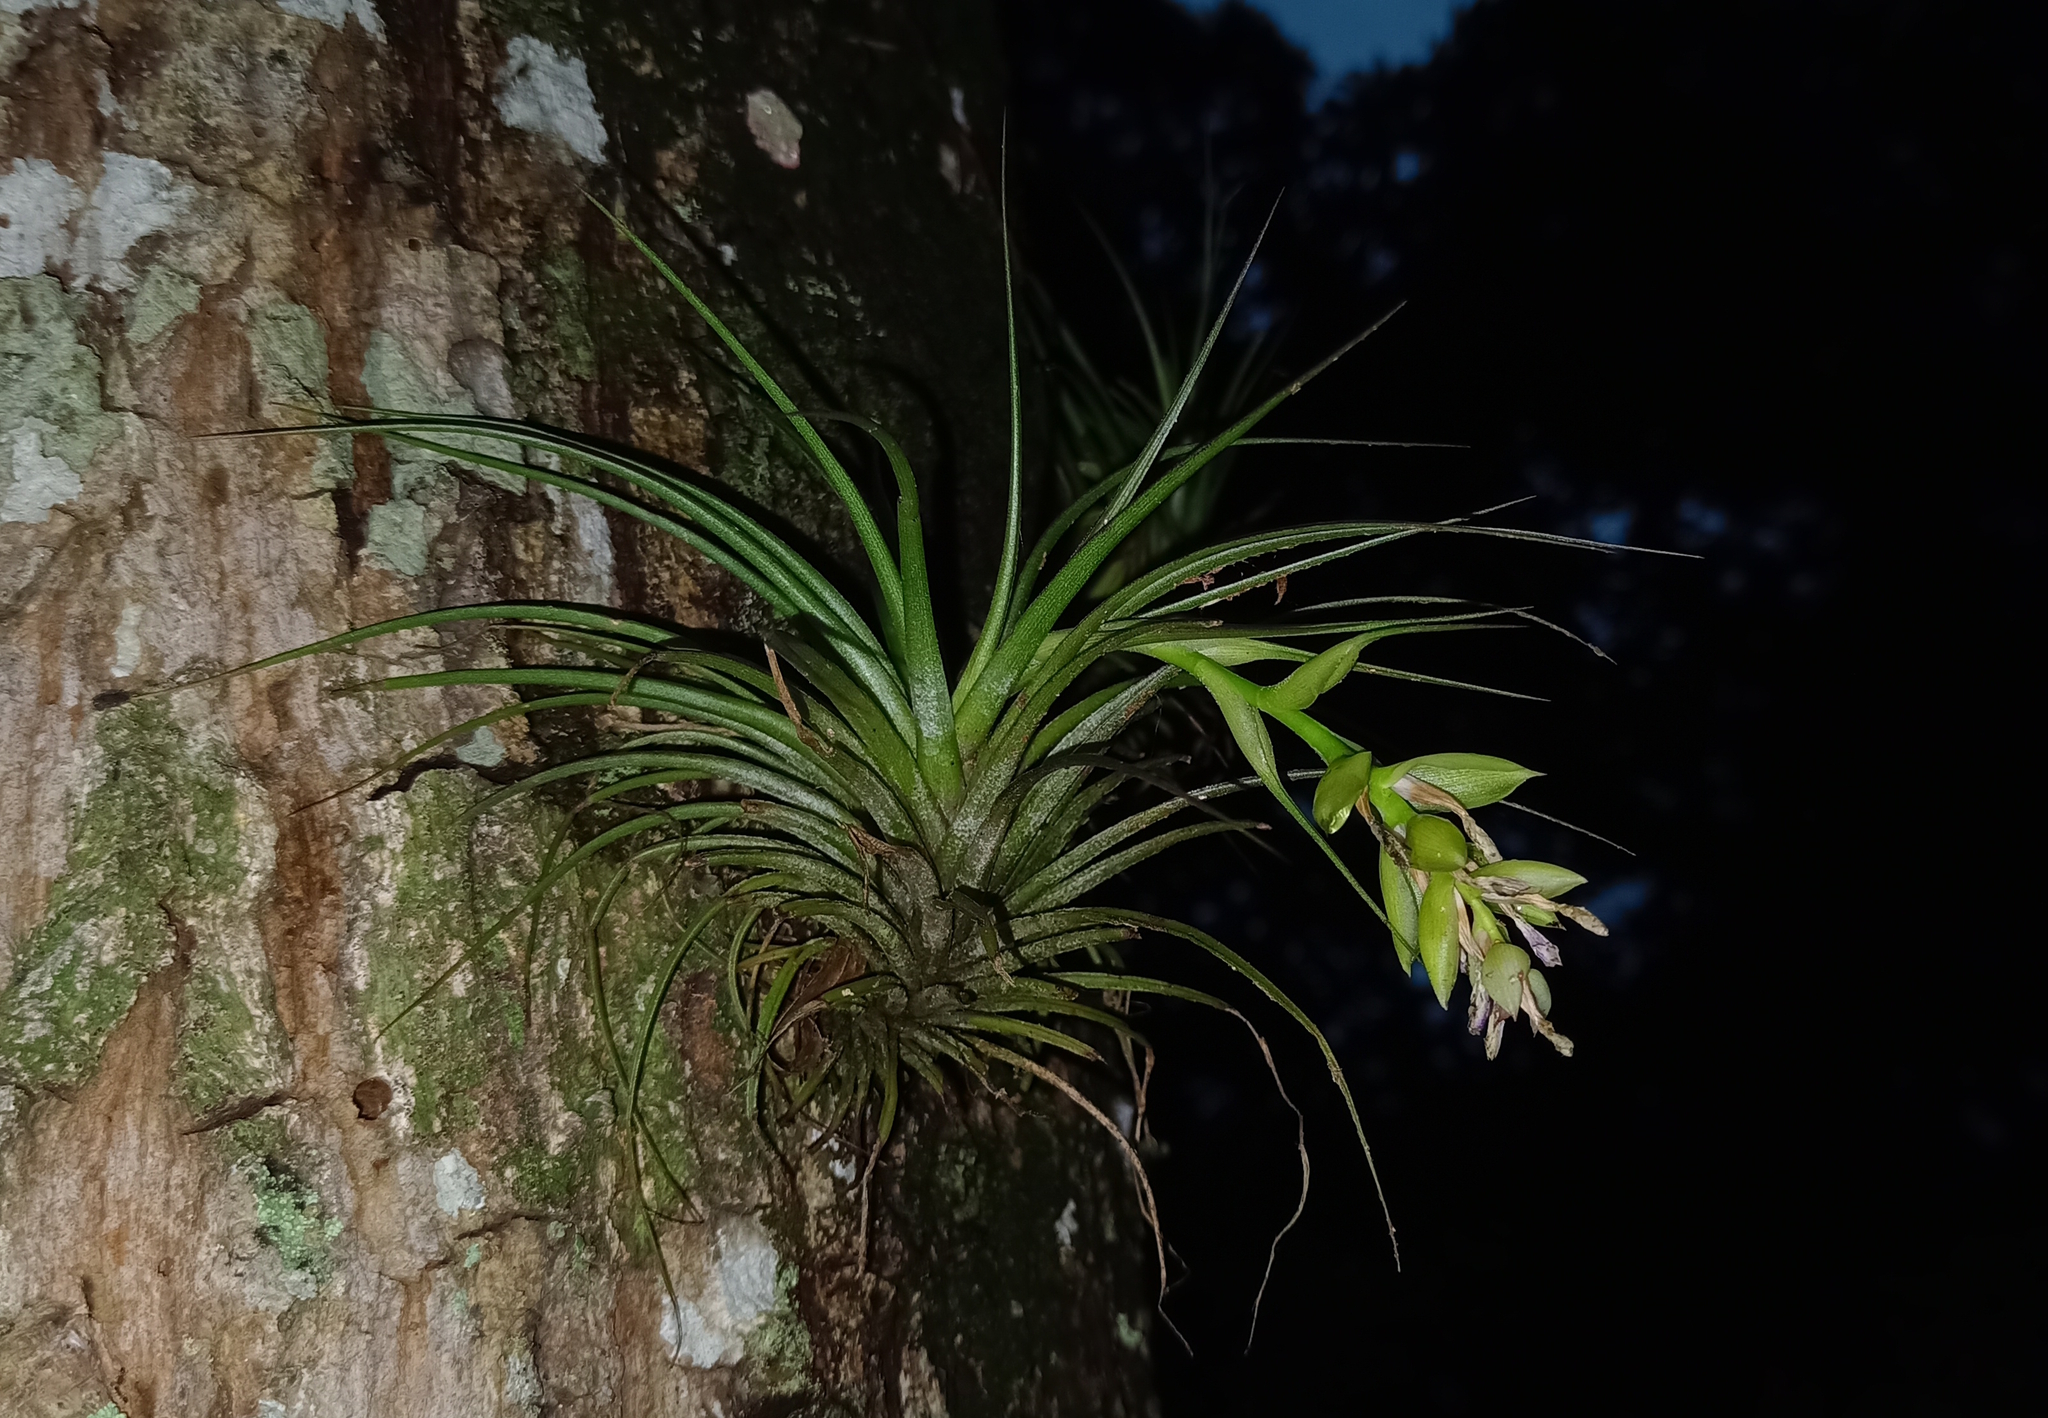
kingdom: Plantae
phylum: Tracheophyta
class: Liliopsida
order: Poales
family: Bromeliaceae
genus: Tillandsia
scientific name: Tillandsia stricta
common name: Airplant
